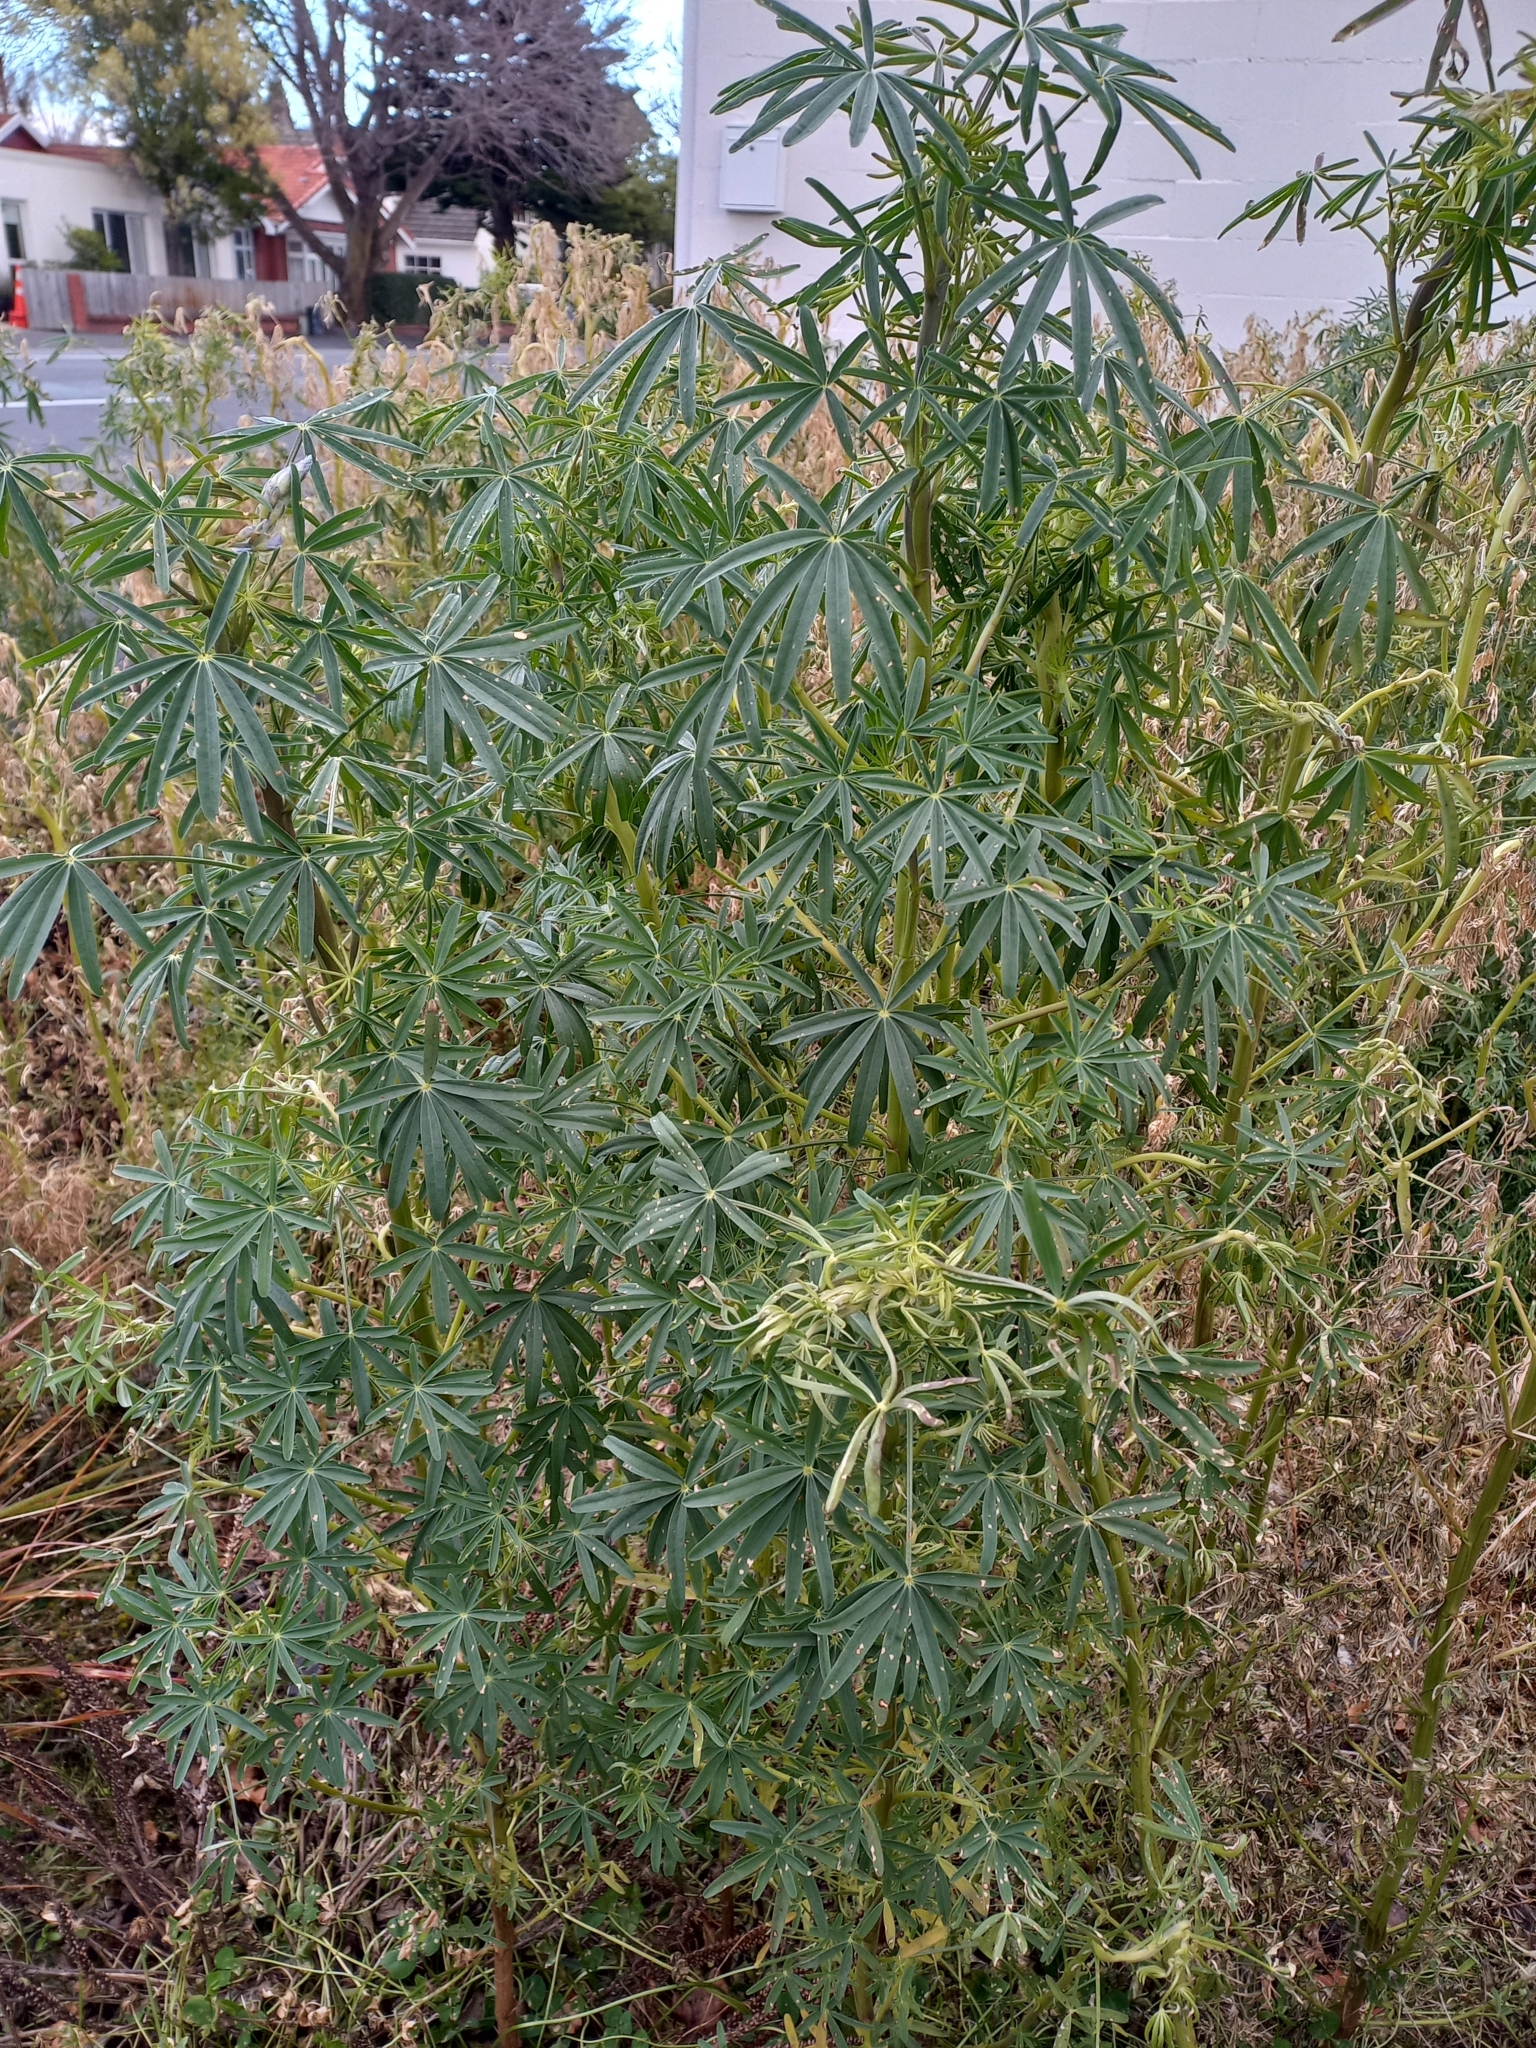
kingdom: Plantae
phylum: Tracheophyta
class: Magnoliopsida
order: Fabales
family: Fabaceae
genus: Lupinus
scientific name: Lupinus arboreus
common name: Yellow bush lupine
